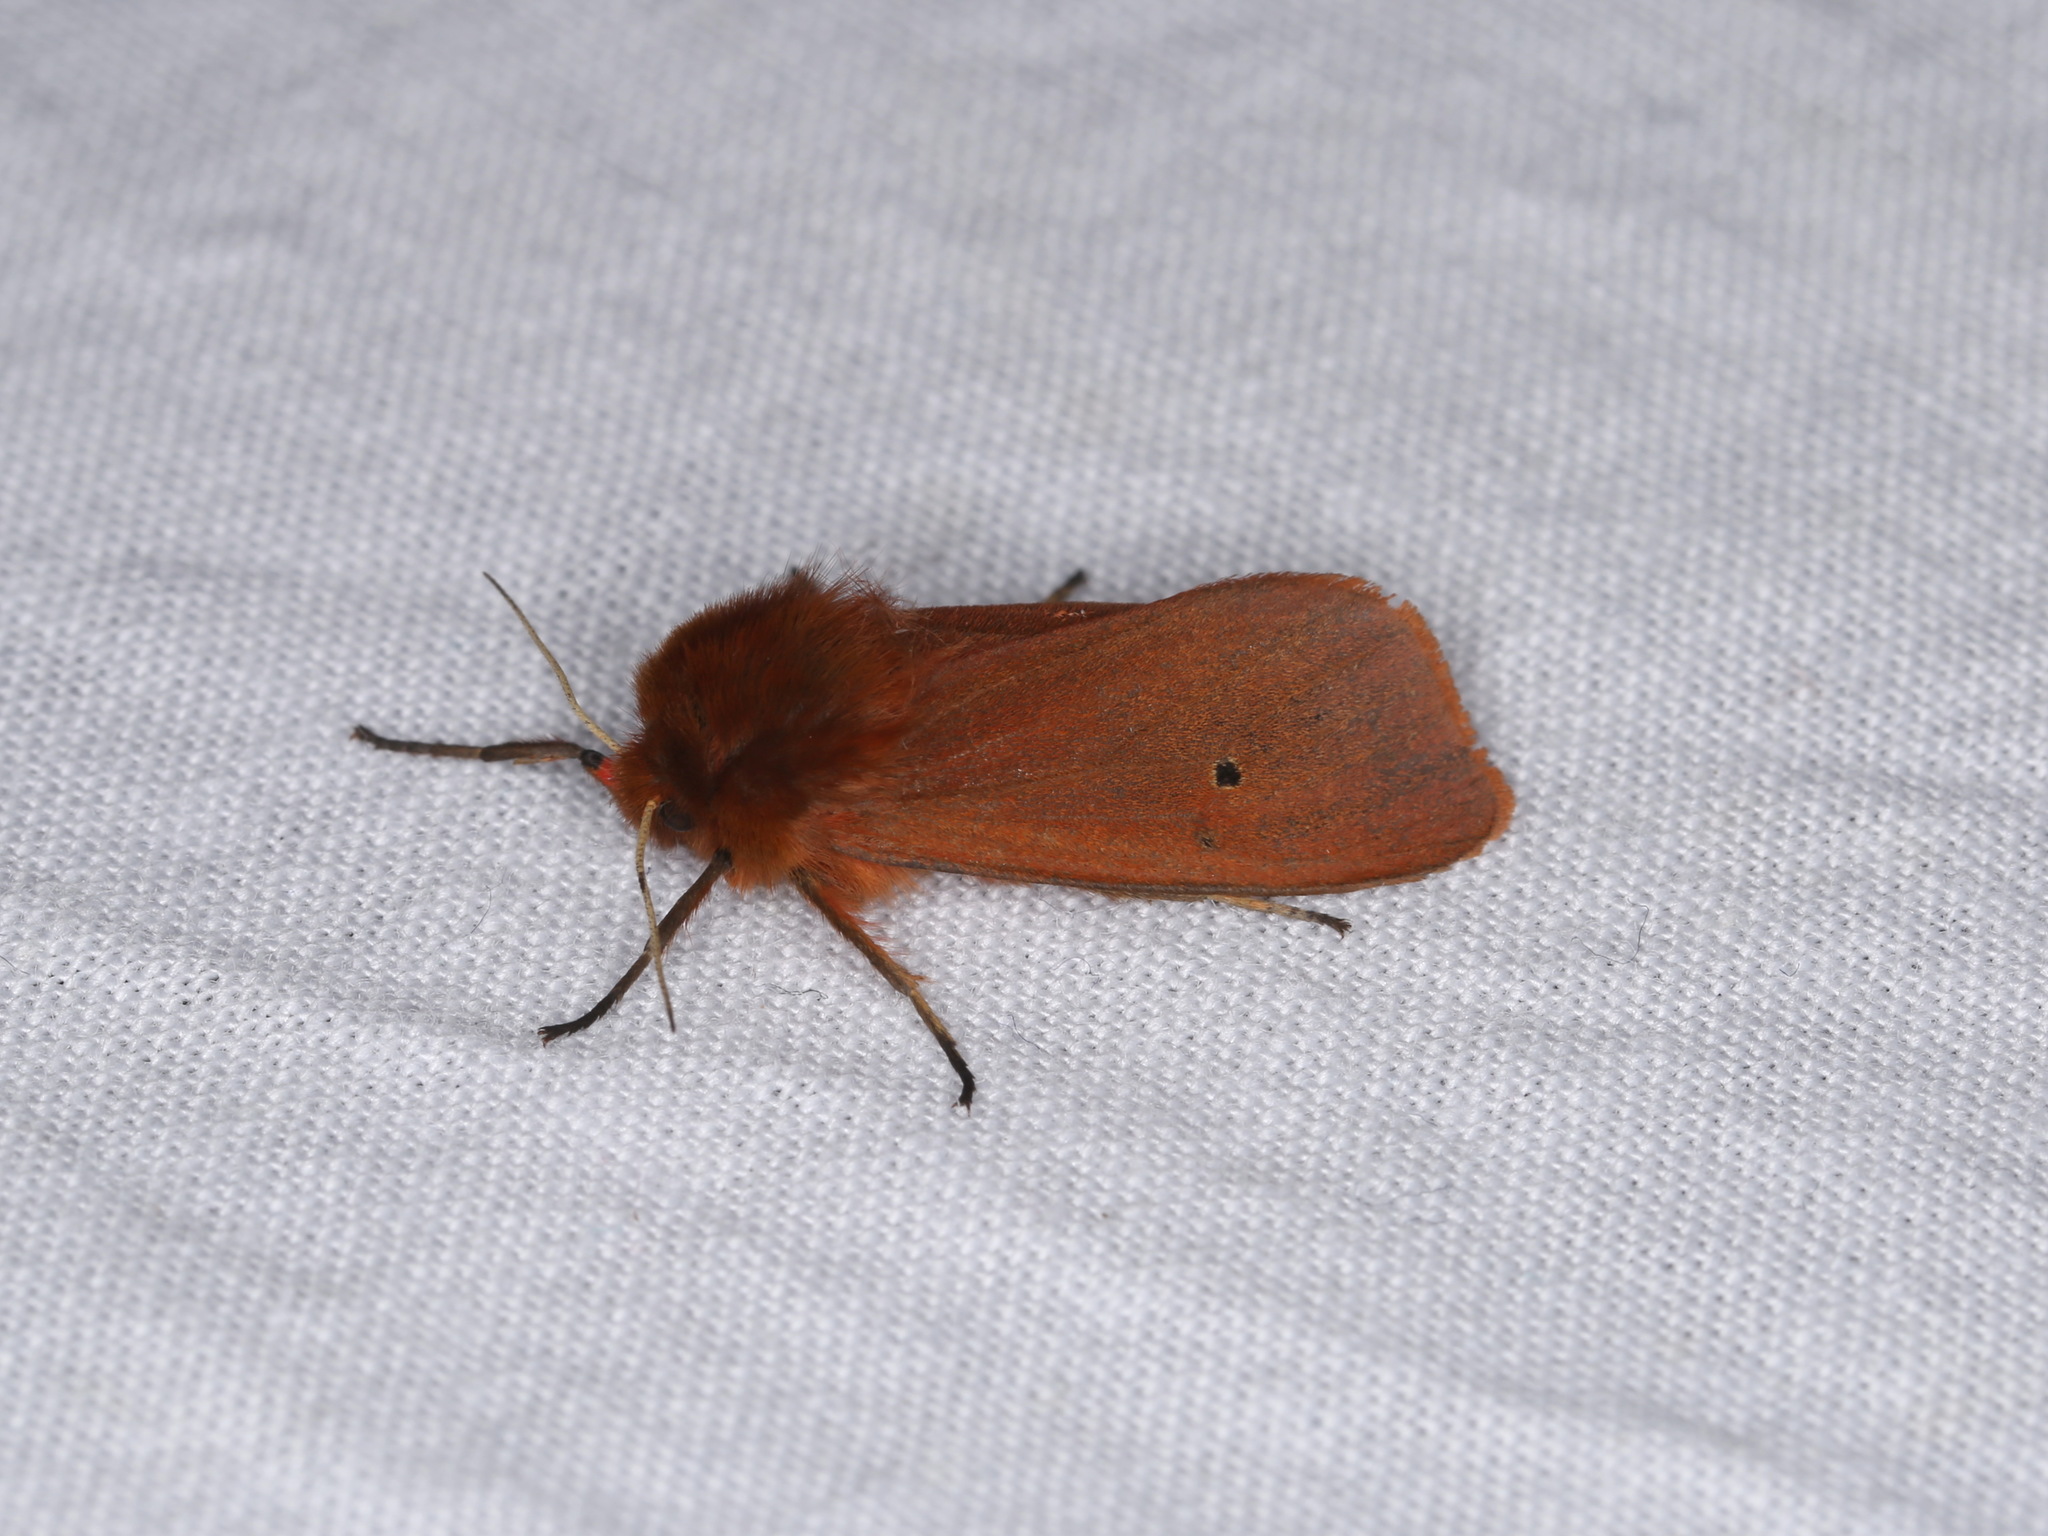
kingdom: Animalia
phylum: Arthropoda
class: Insecta
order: Lepidoptera
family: Erebidae
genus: Phragmatobia
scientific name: Phragmatobia fuliginosa
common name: Ruby tiger
